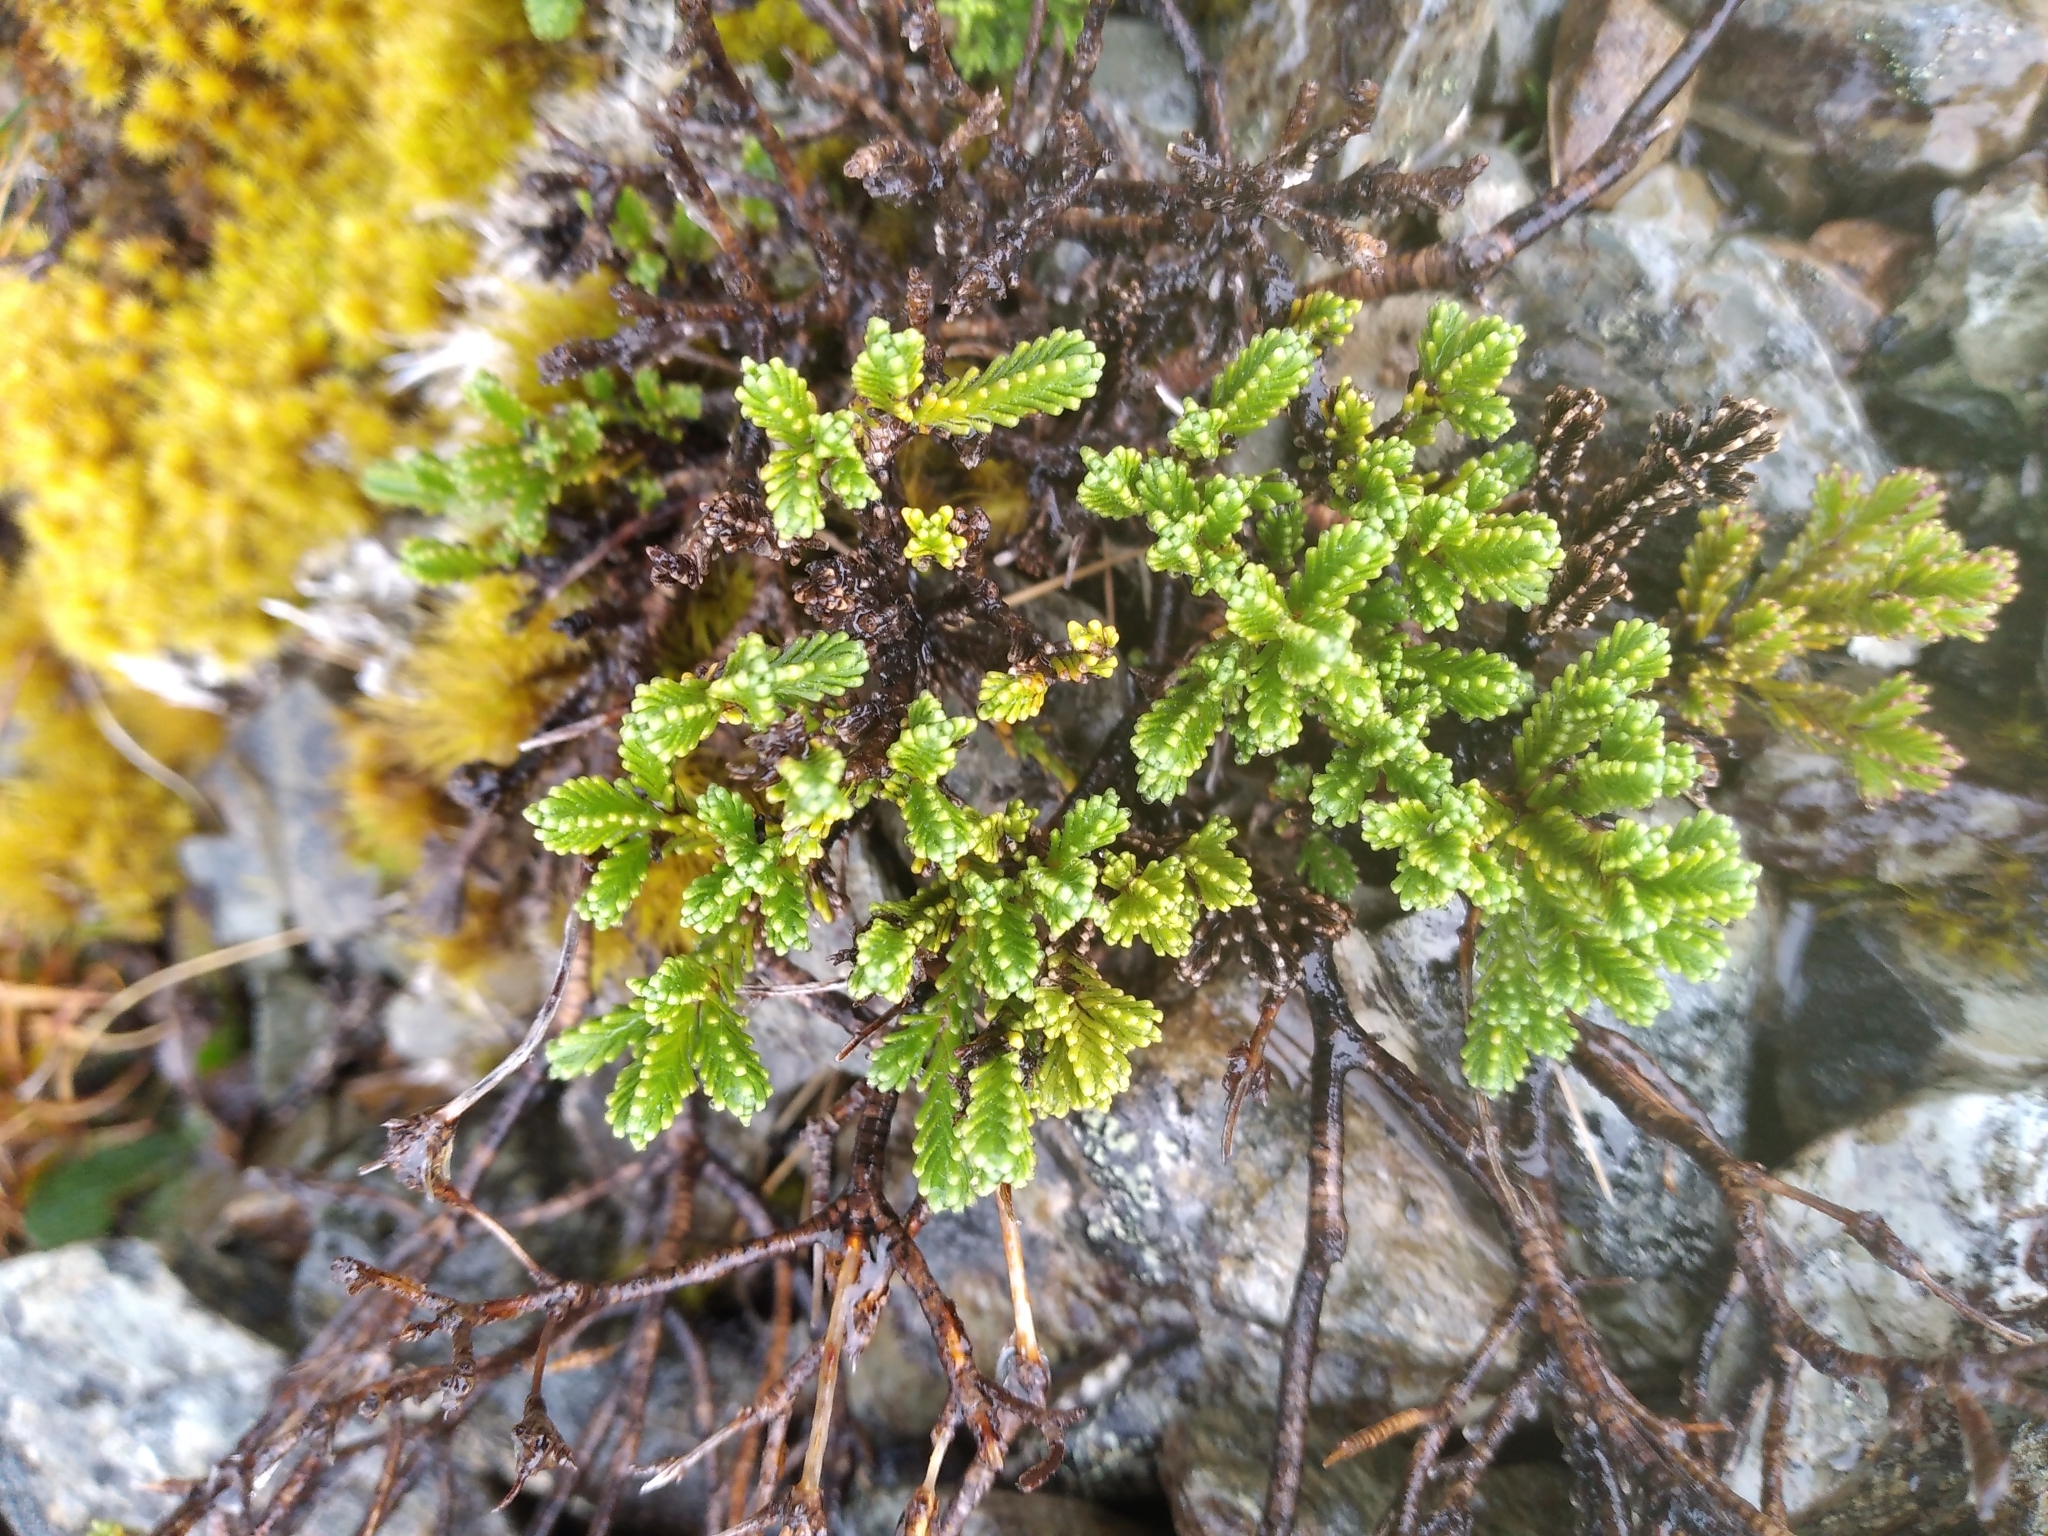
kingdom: Plantae
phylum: Tracheophyta
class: Magnoliopsida
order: Lamiales
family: Plantaginaceae
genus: Veronica
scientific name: Veronica hookeri
